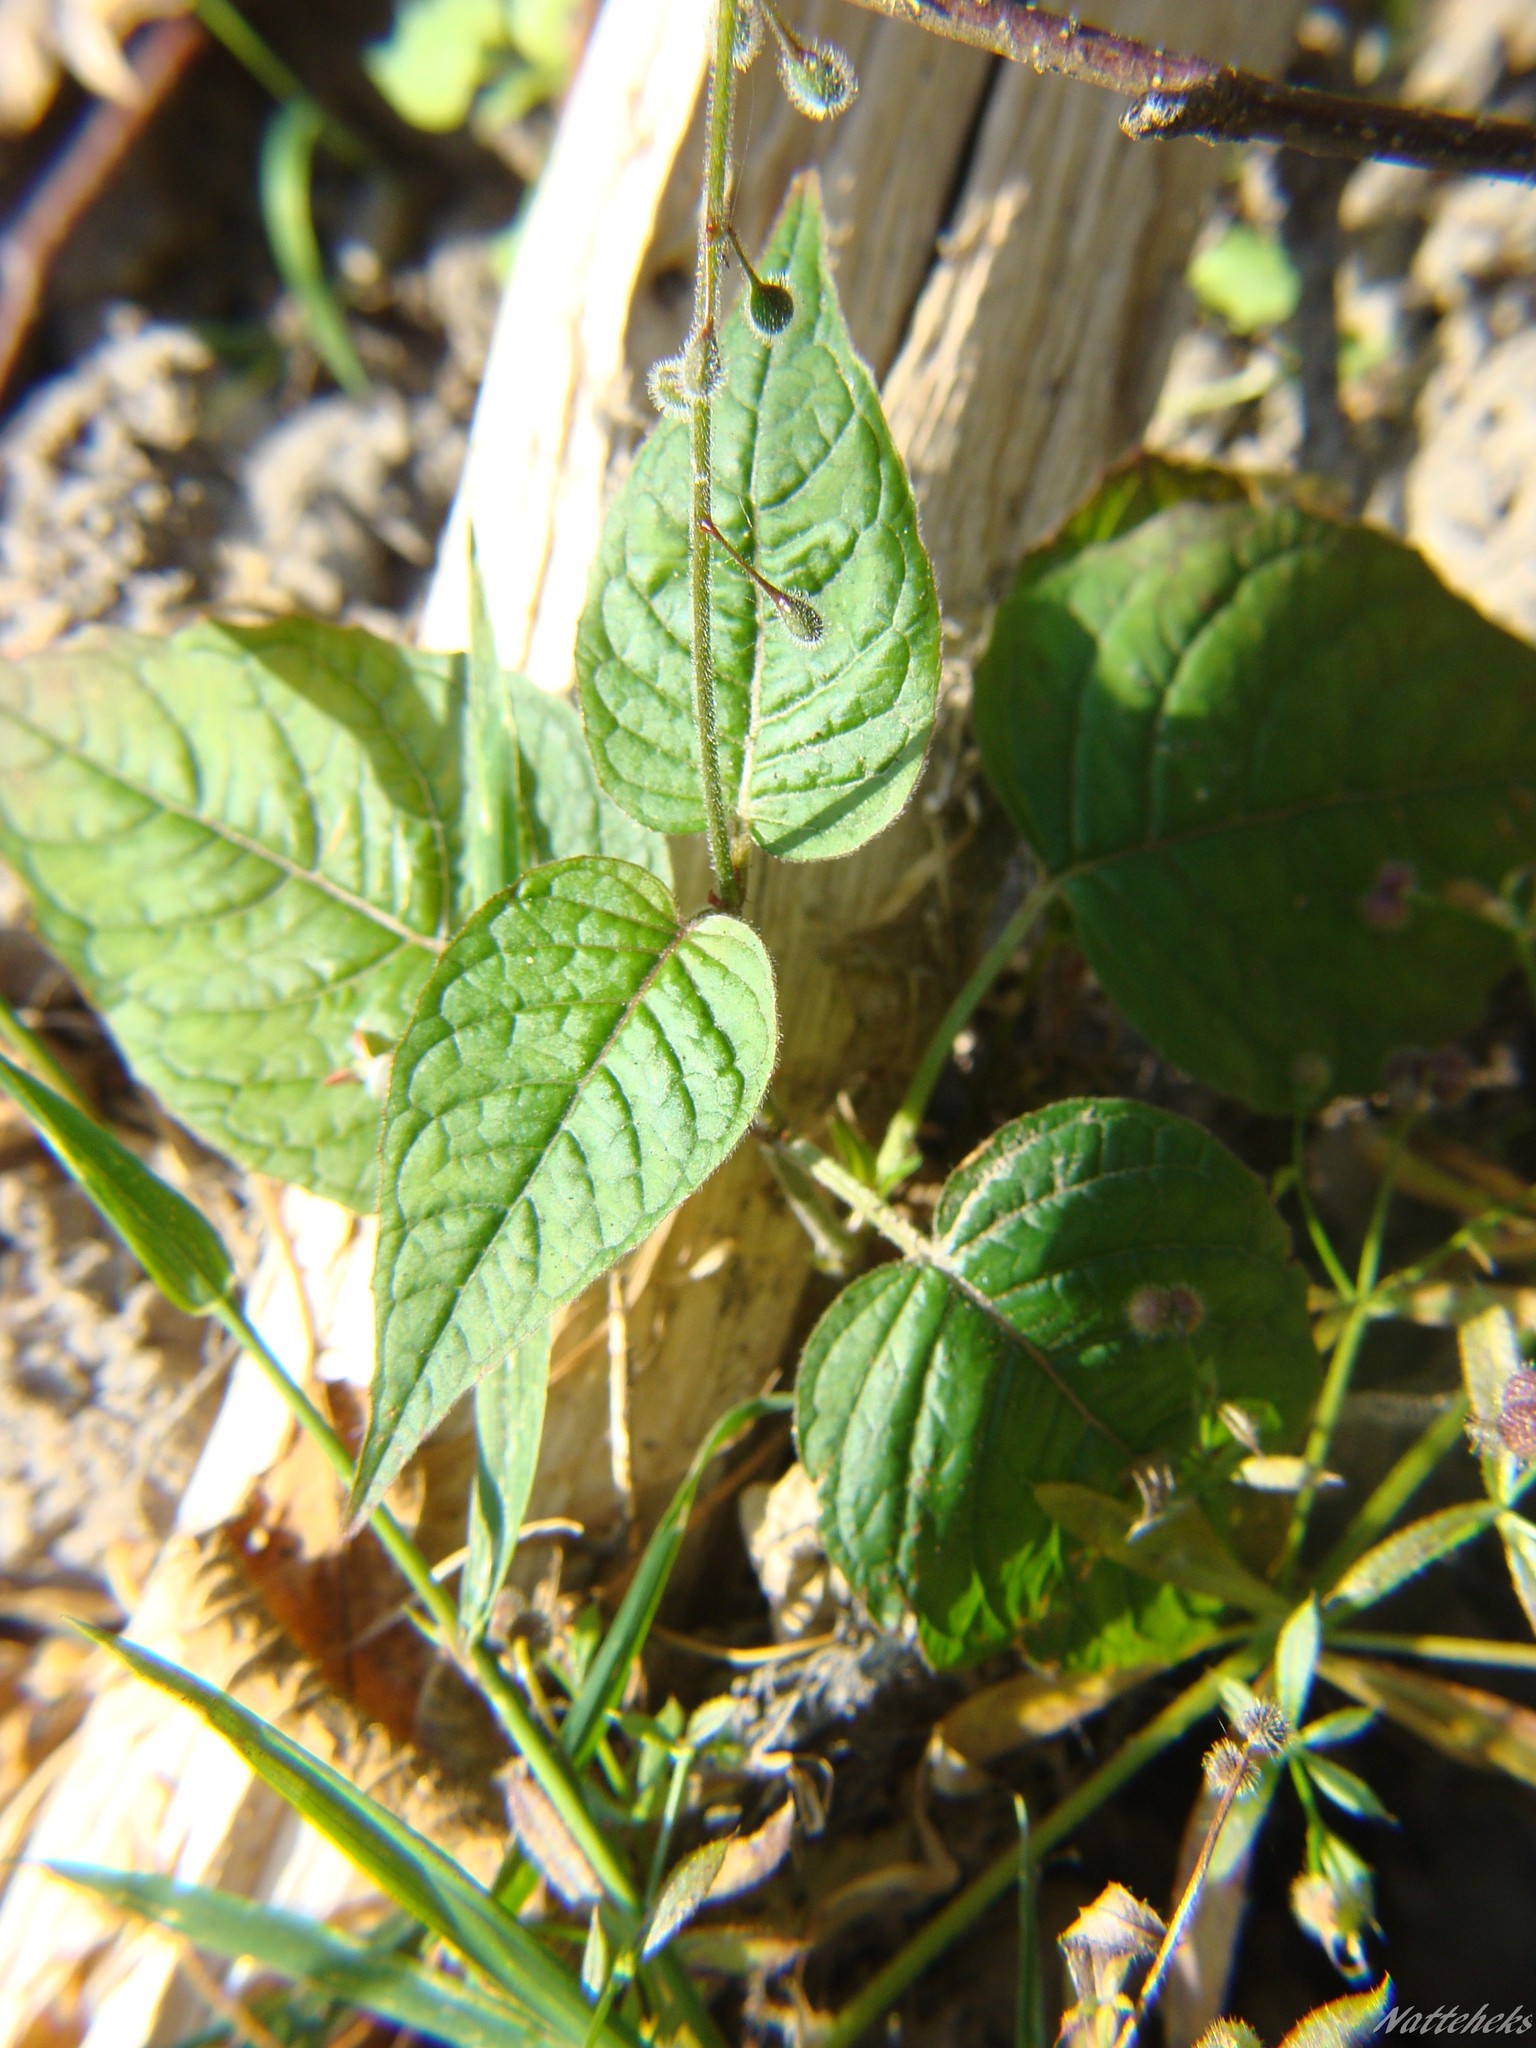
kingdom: Plantae
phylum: Tracheophyta
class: Magnoliopsida
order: Myrtales
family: Onagraceae
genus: Circaea
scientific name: Circaea lutetiana
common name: Enchanter's-nightshade
